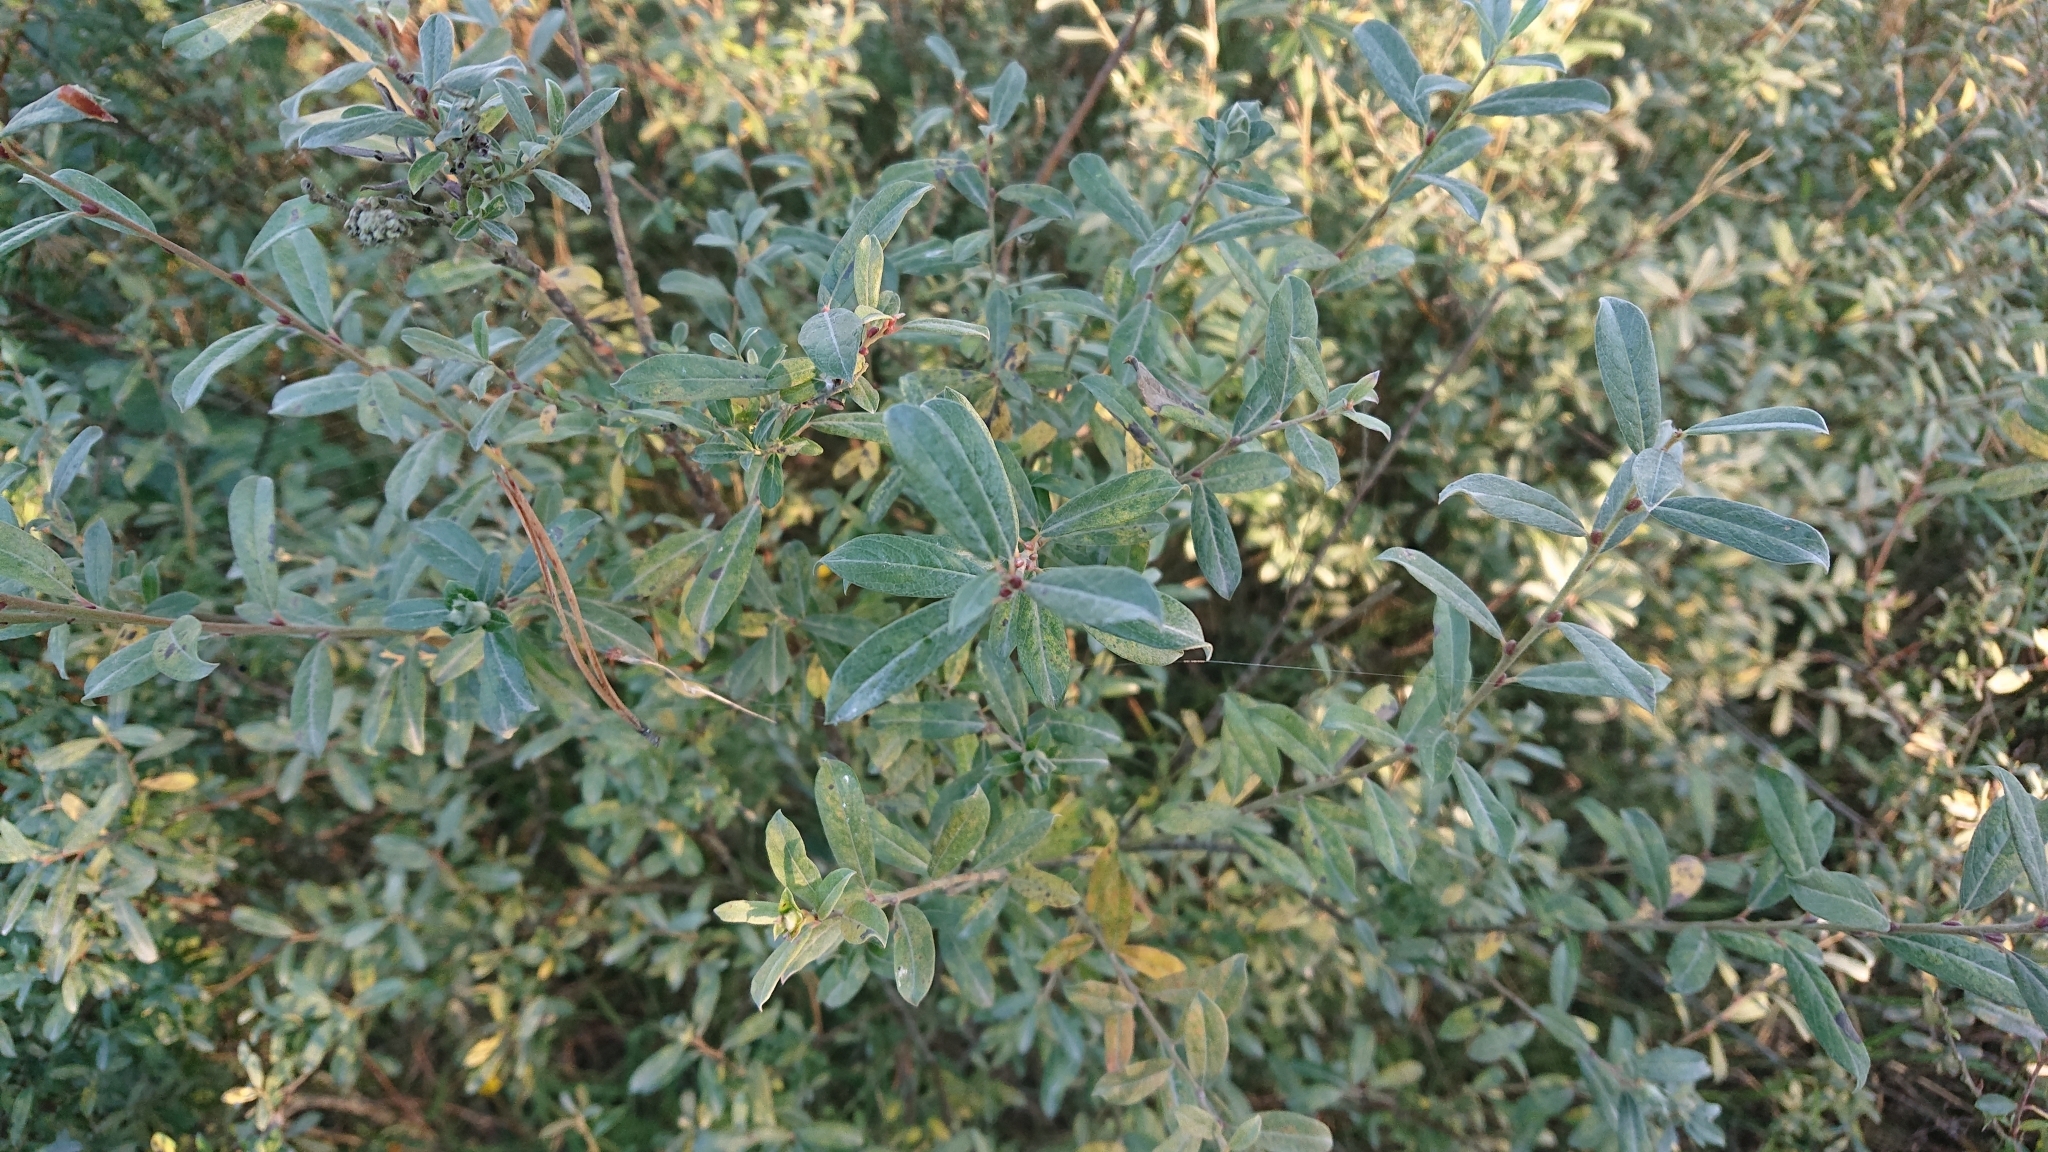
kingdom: Plantae
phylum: Tracheophyta
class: Magnoliopsida
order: Rosales
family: Elaeagnaceae
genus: Hippophae
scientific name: Hippophae rhamnoides
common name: Sea-buckthorn
